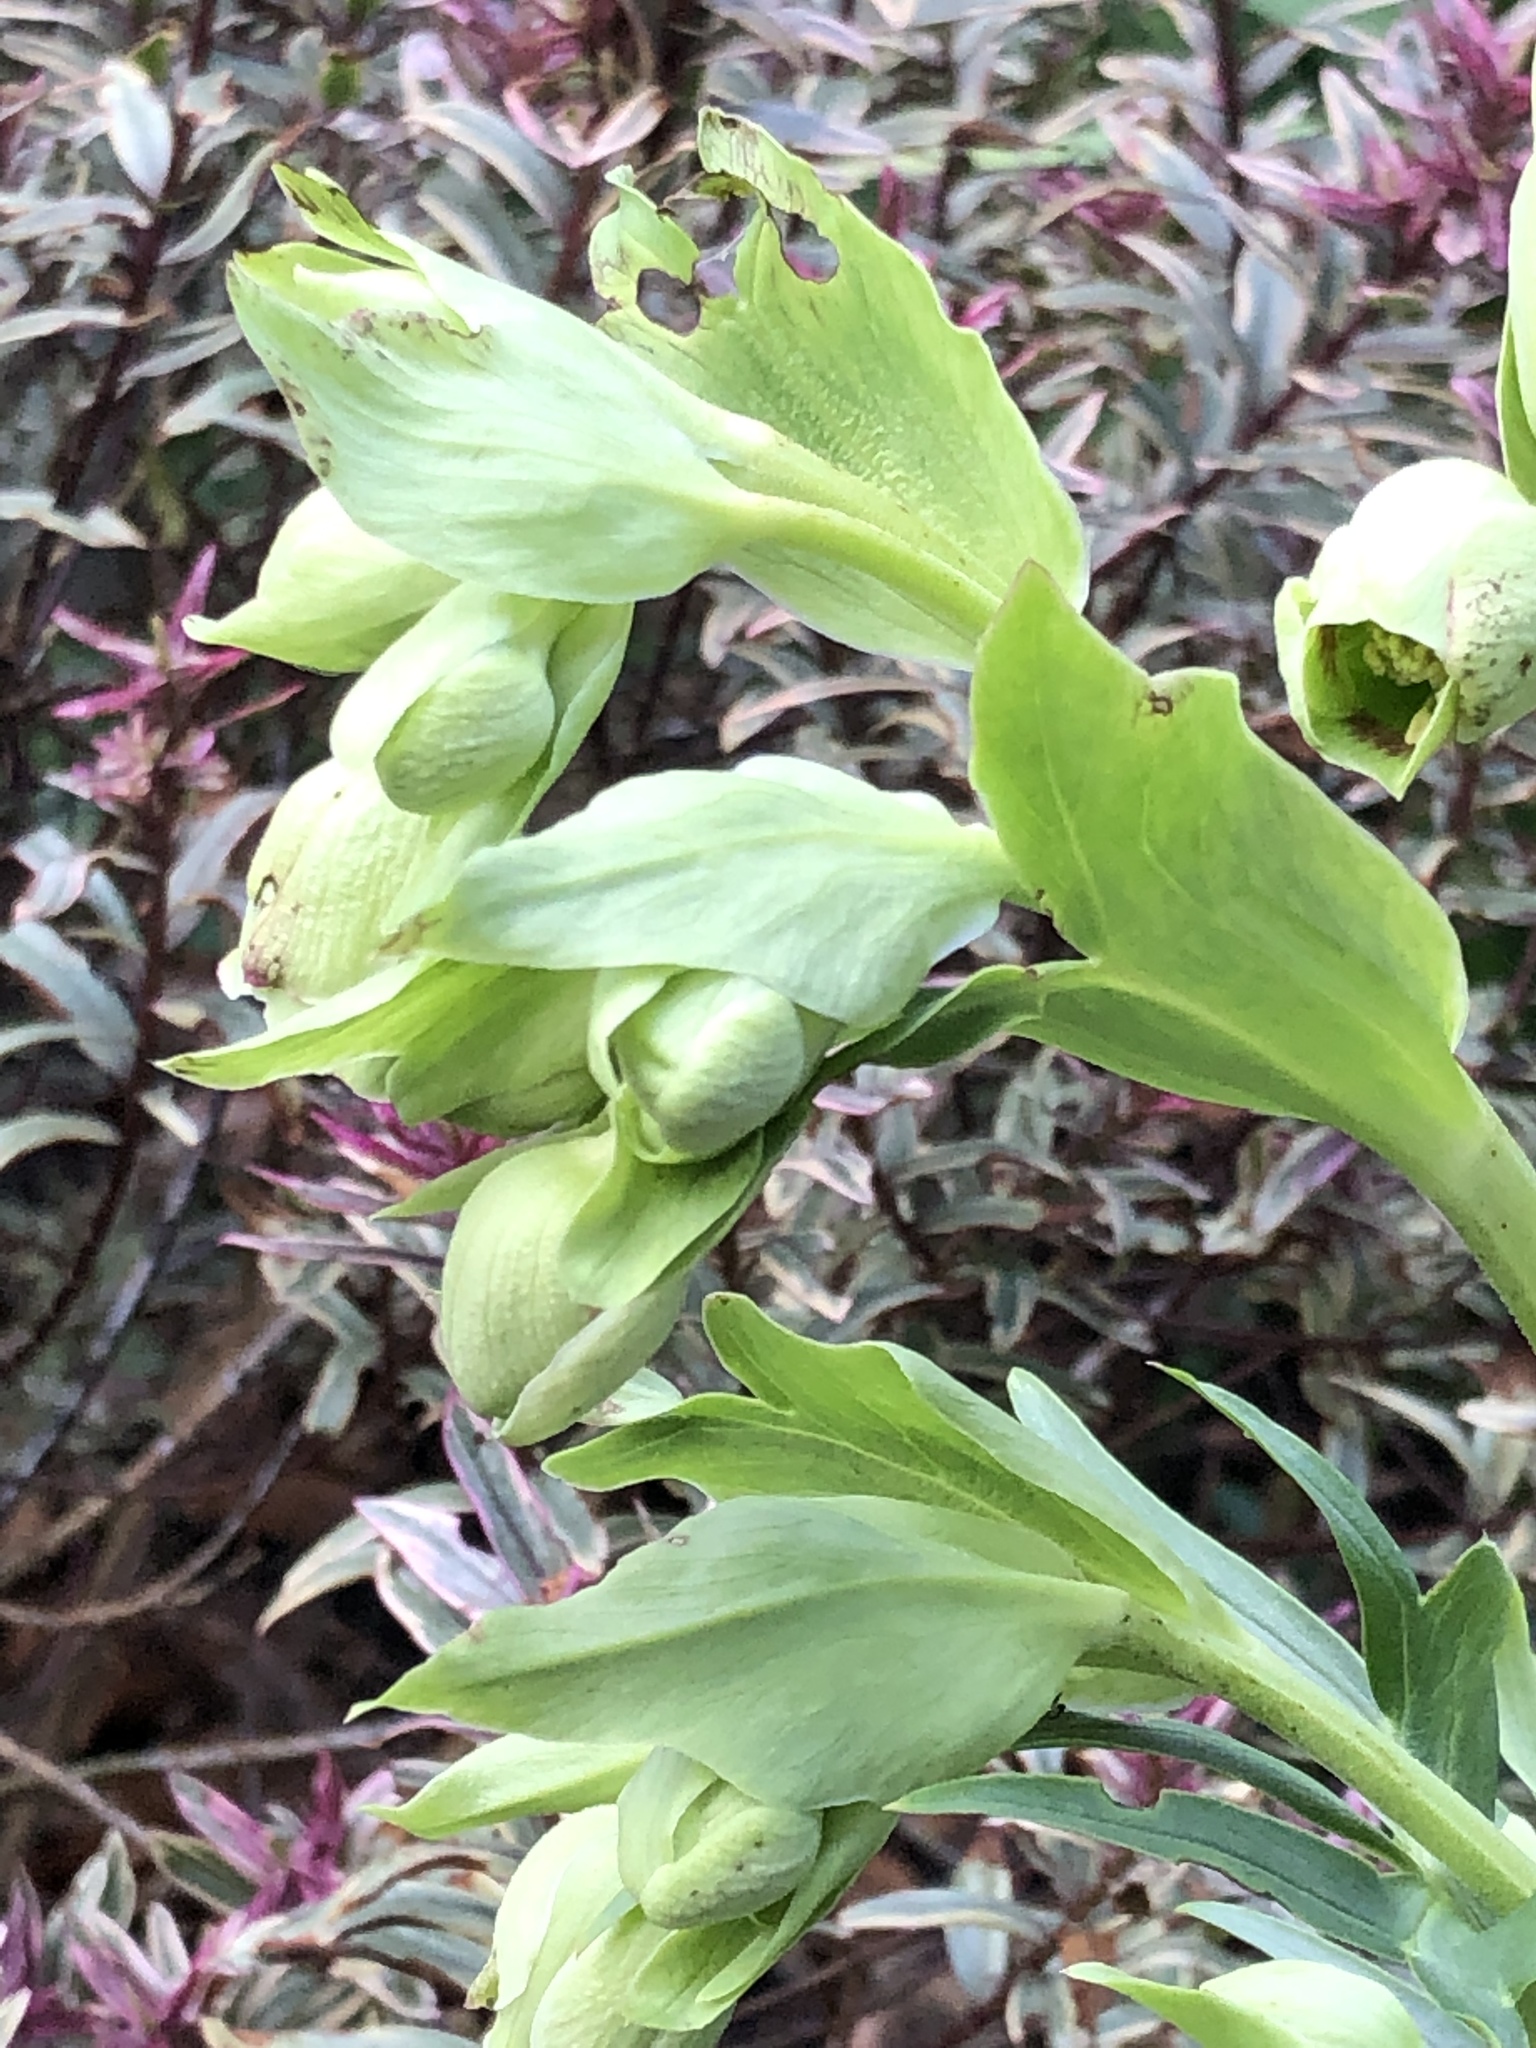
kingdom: Plantae
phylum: Tracheophyta
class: Magnoliopsida
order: Ranunculales
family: Ranunculaceae
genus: Helleborus
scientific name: Helleborus foetidus
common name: Stinking hellebore
